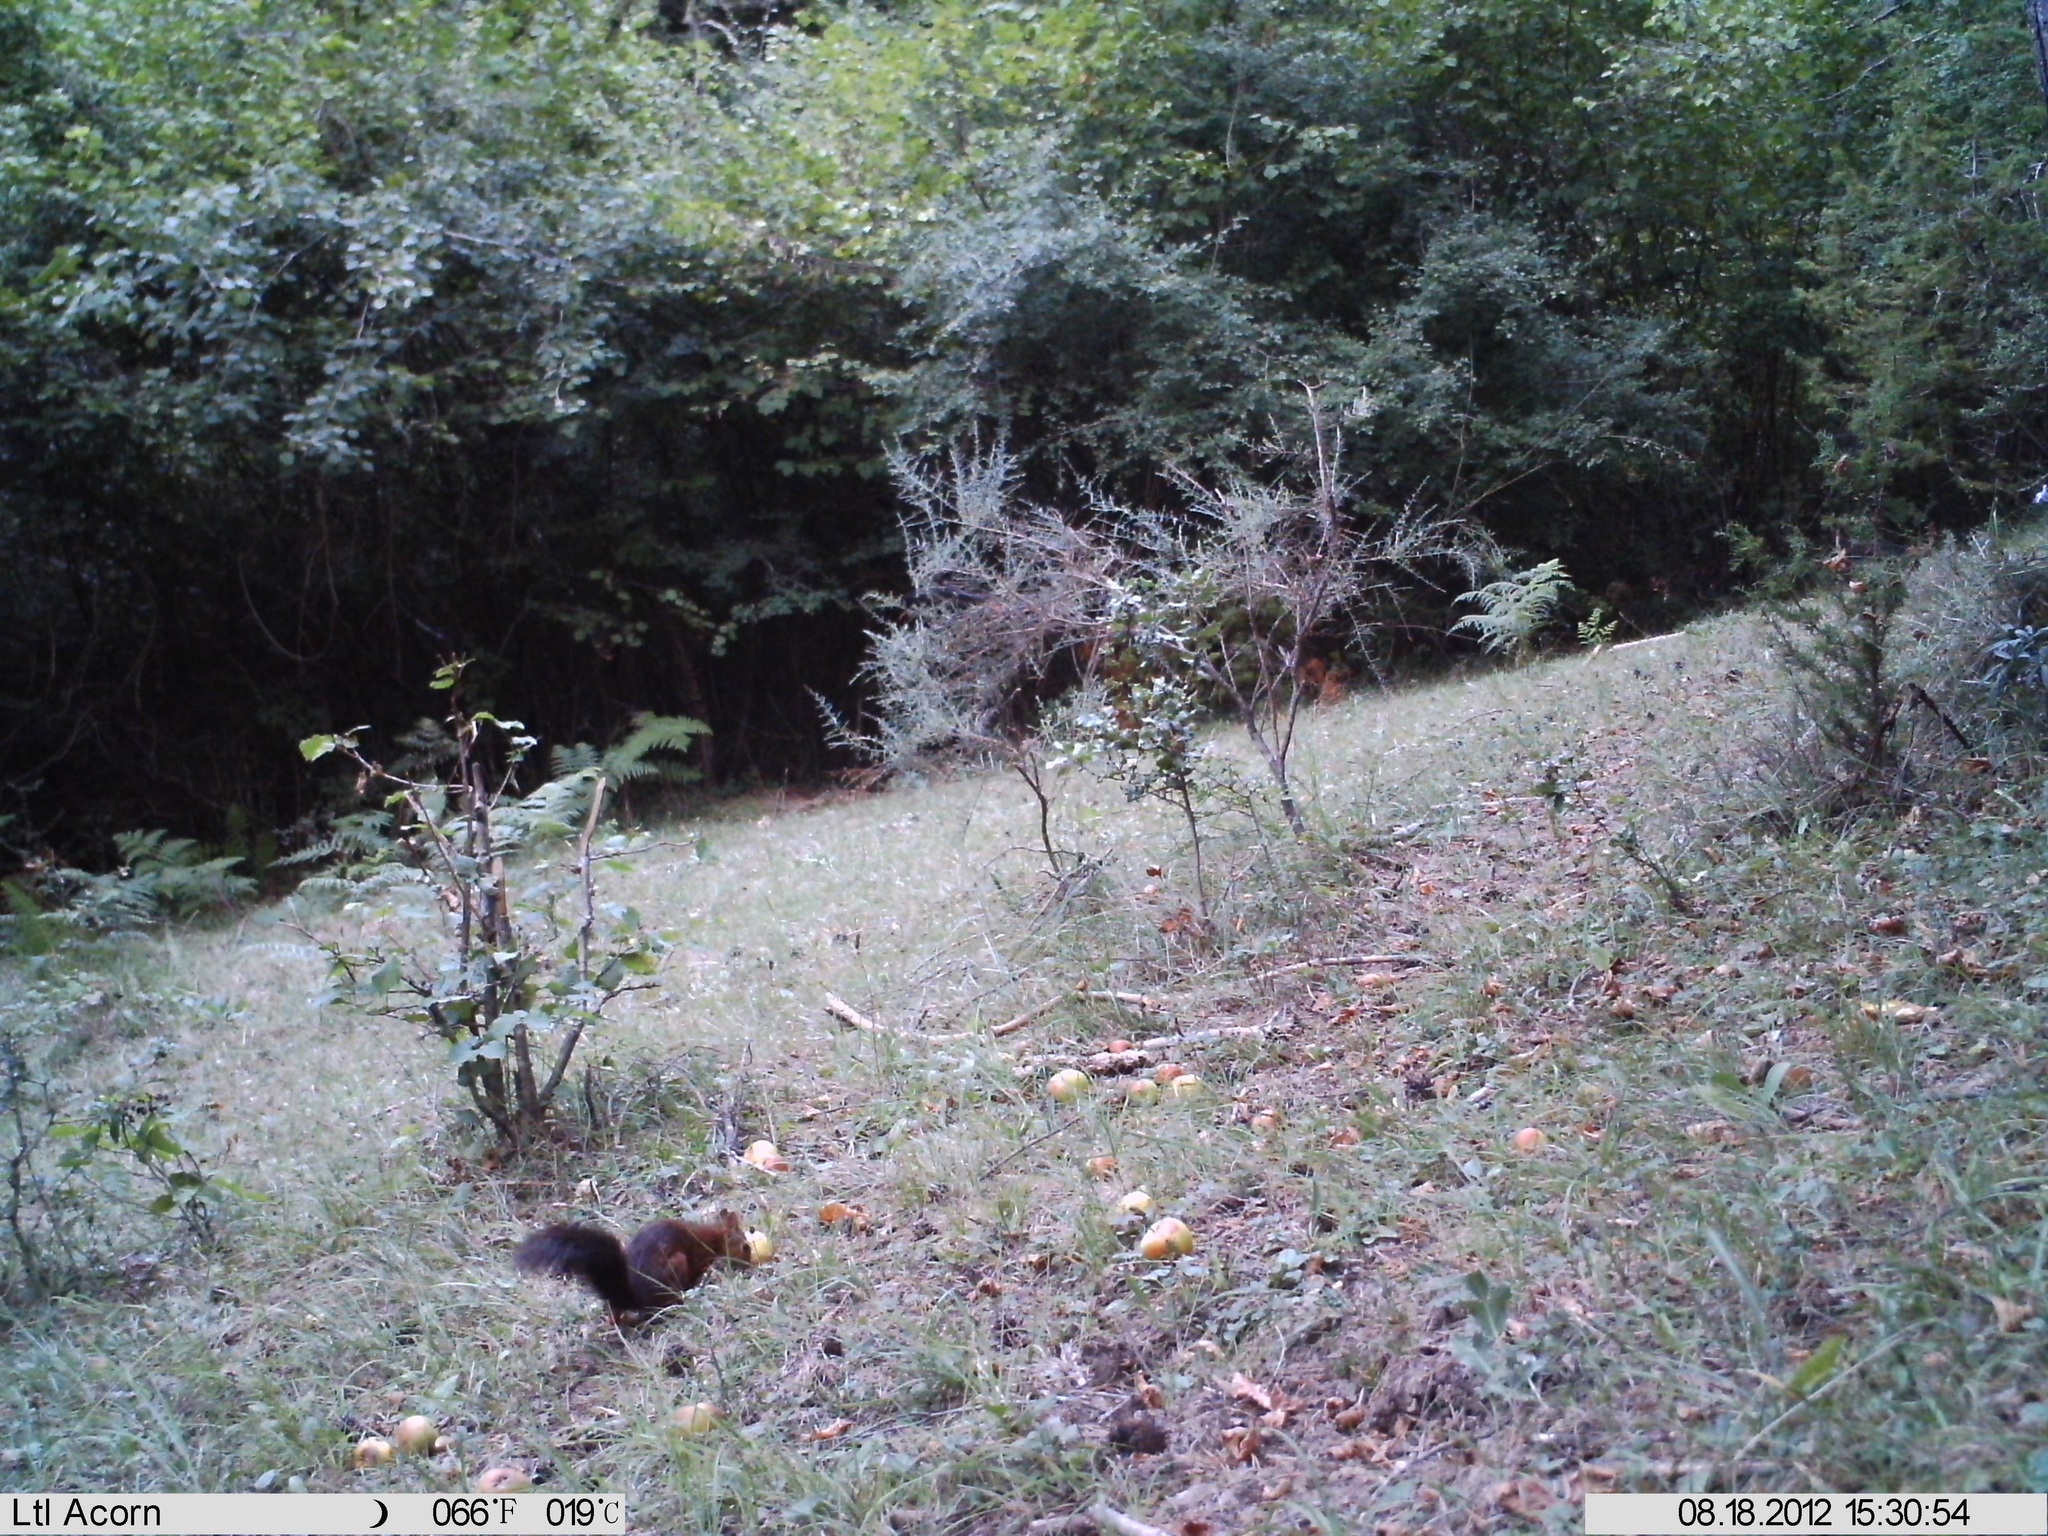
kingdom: Animalia
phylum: Chordata
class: Mammalia
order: Rodentia
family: Sciuridae
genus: Sciurus
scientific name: Sciurus vulgaris
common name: Eurasian red squirrel
